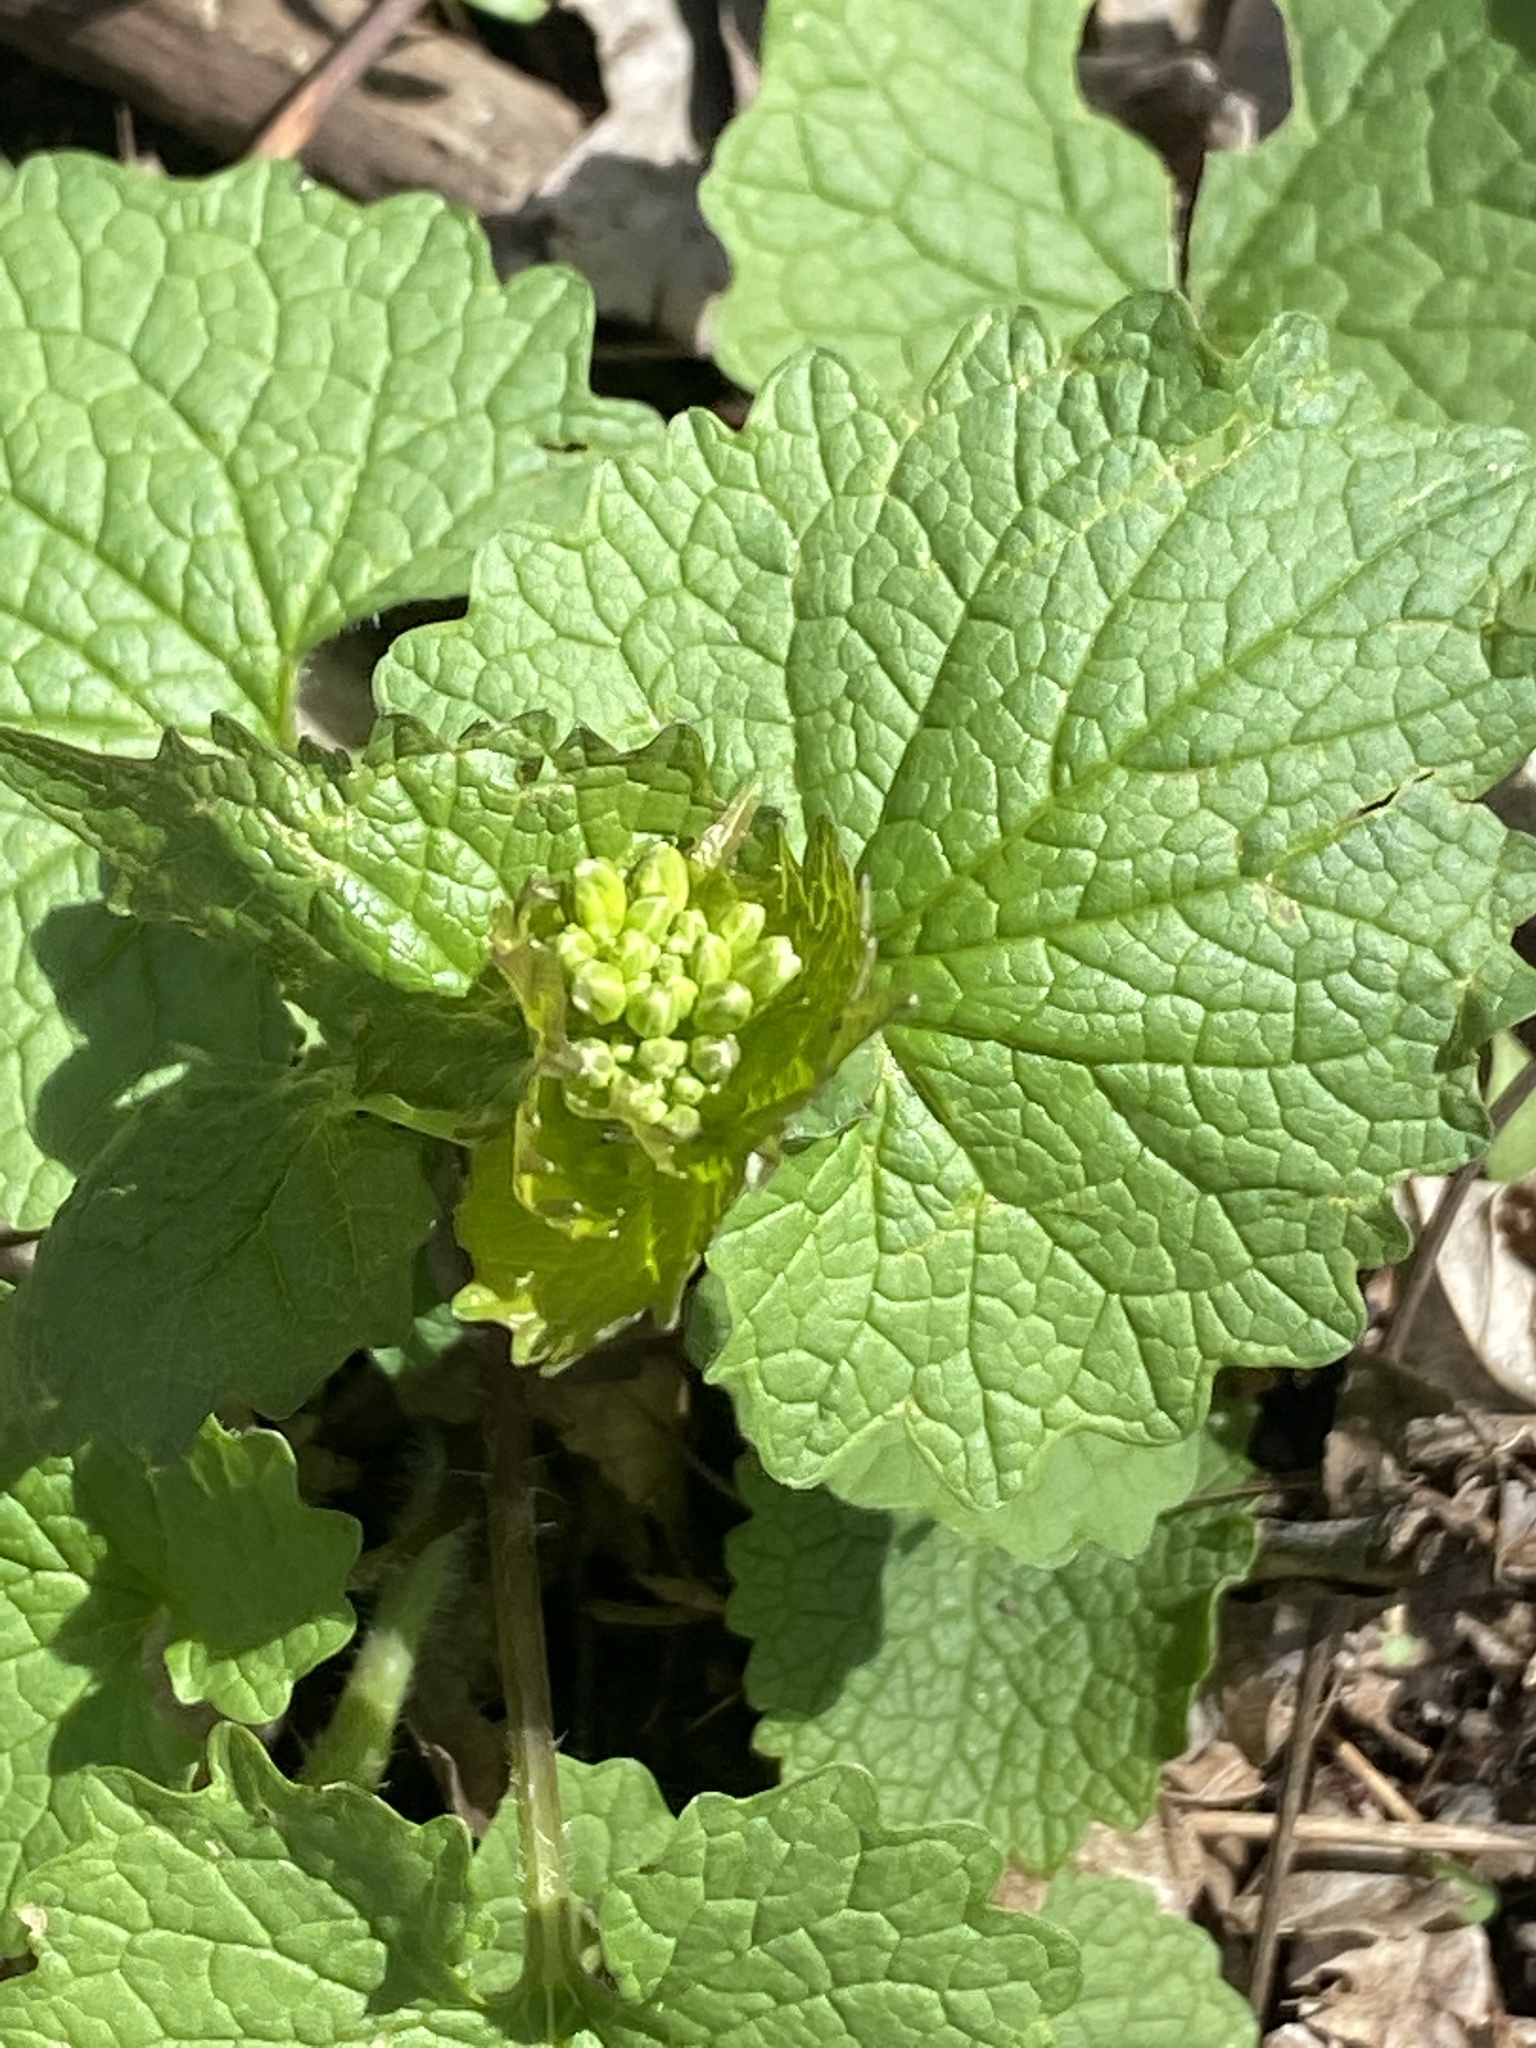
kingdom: Plantae
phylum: Tracheophyta
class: Magnoliopsida
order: Brassicales
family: Brassicaceae
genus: Alliaria
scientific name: Alliaria petiolata
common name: Garlic mustard
